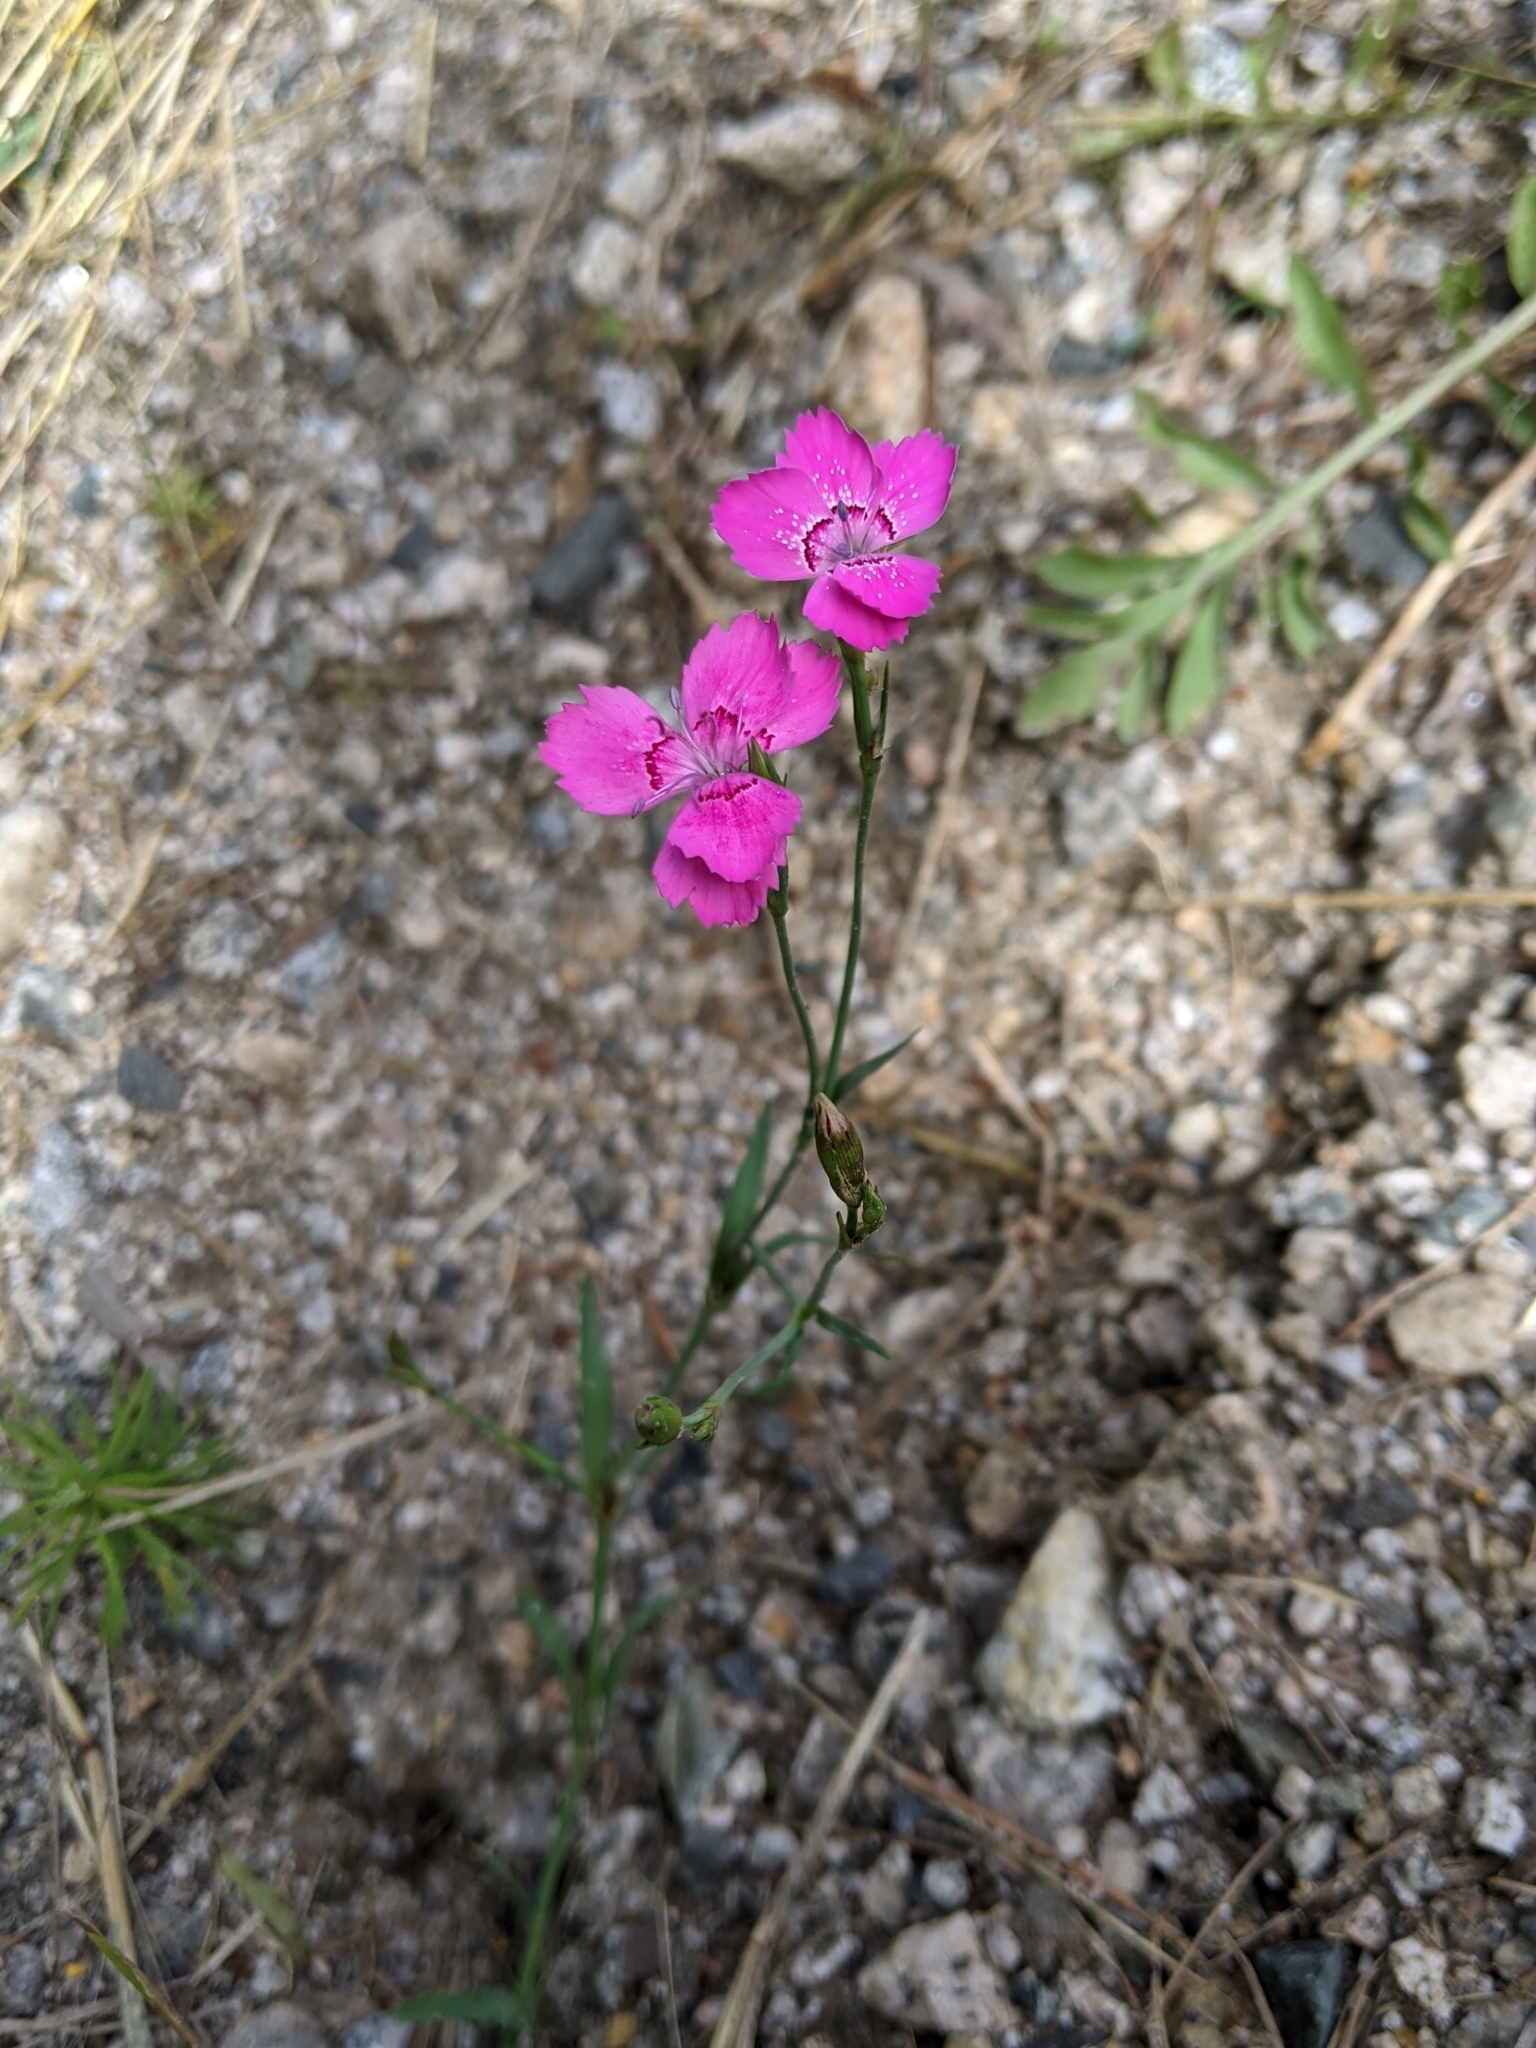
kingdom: Plantae
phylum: Tracheophyta
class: Magnoliopsida
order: Caryophyllales
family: Caryophyllaceae
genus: Dianthus
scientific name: Dianthus deltoides
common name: Maiden pink
